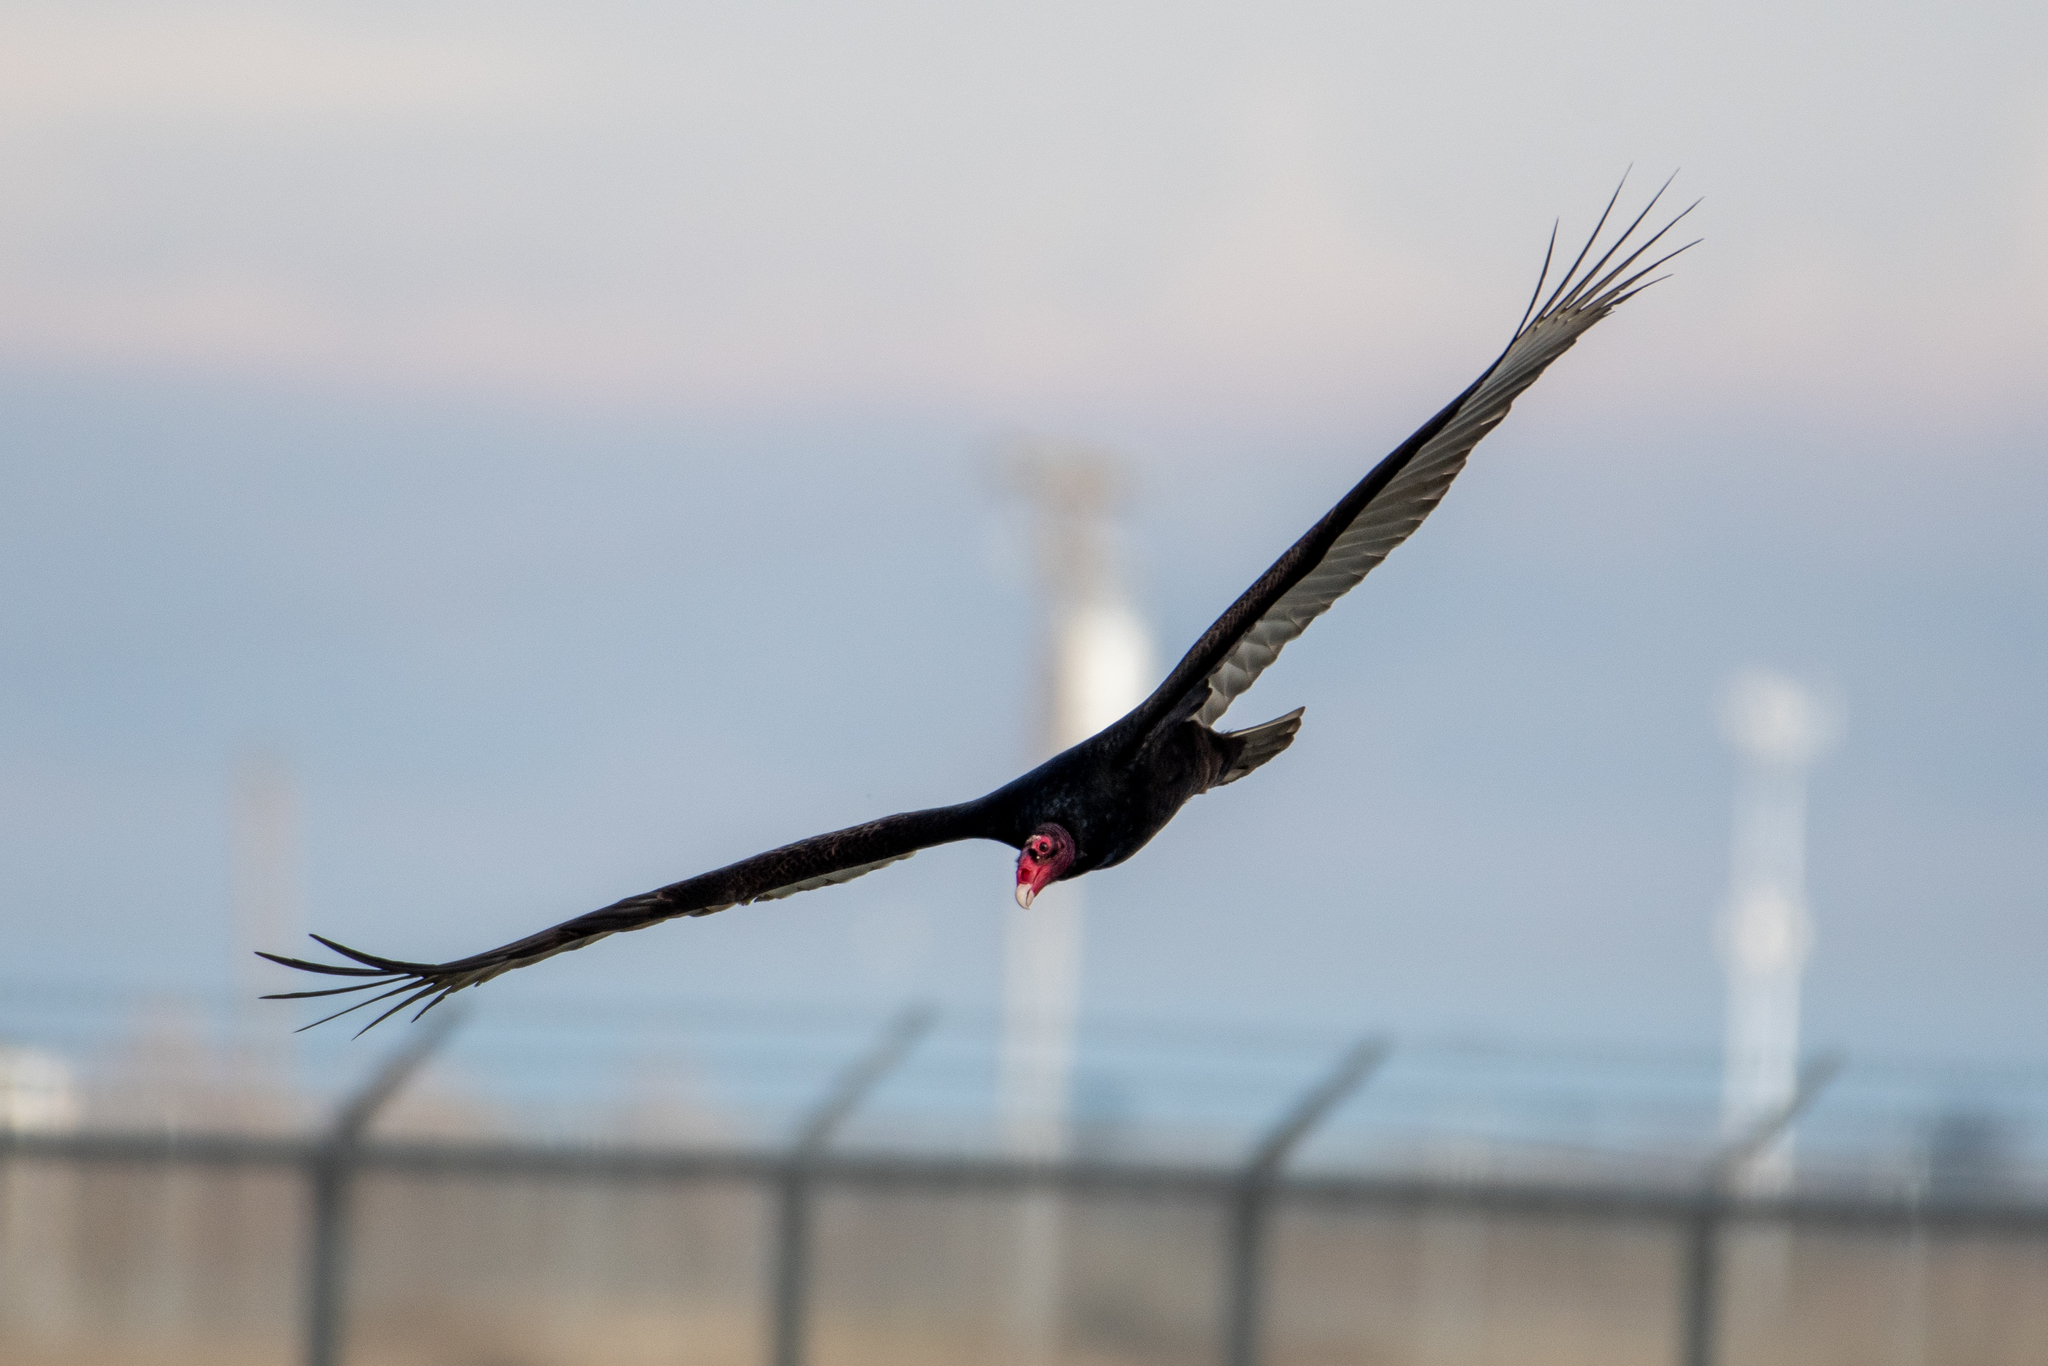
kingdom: Animalia
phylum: Chordata
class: Aves
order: Accipitriformes
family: Cathartidae
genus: Cathartes
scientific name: Cathartes aura
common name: Turkey vulture
